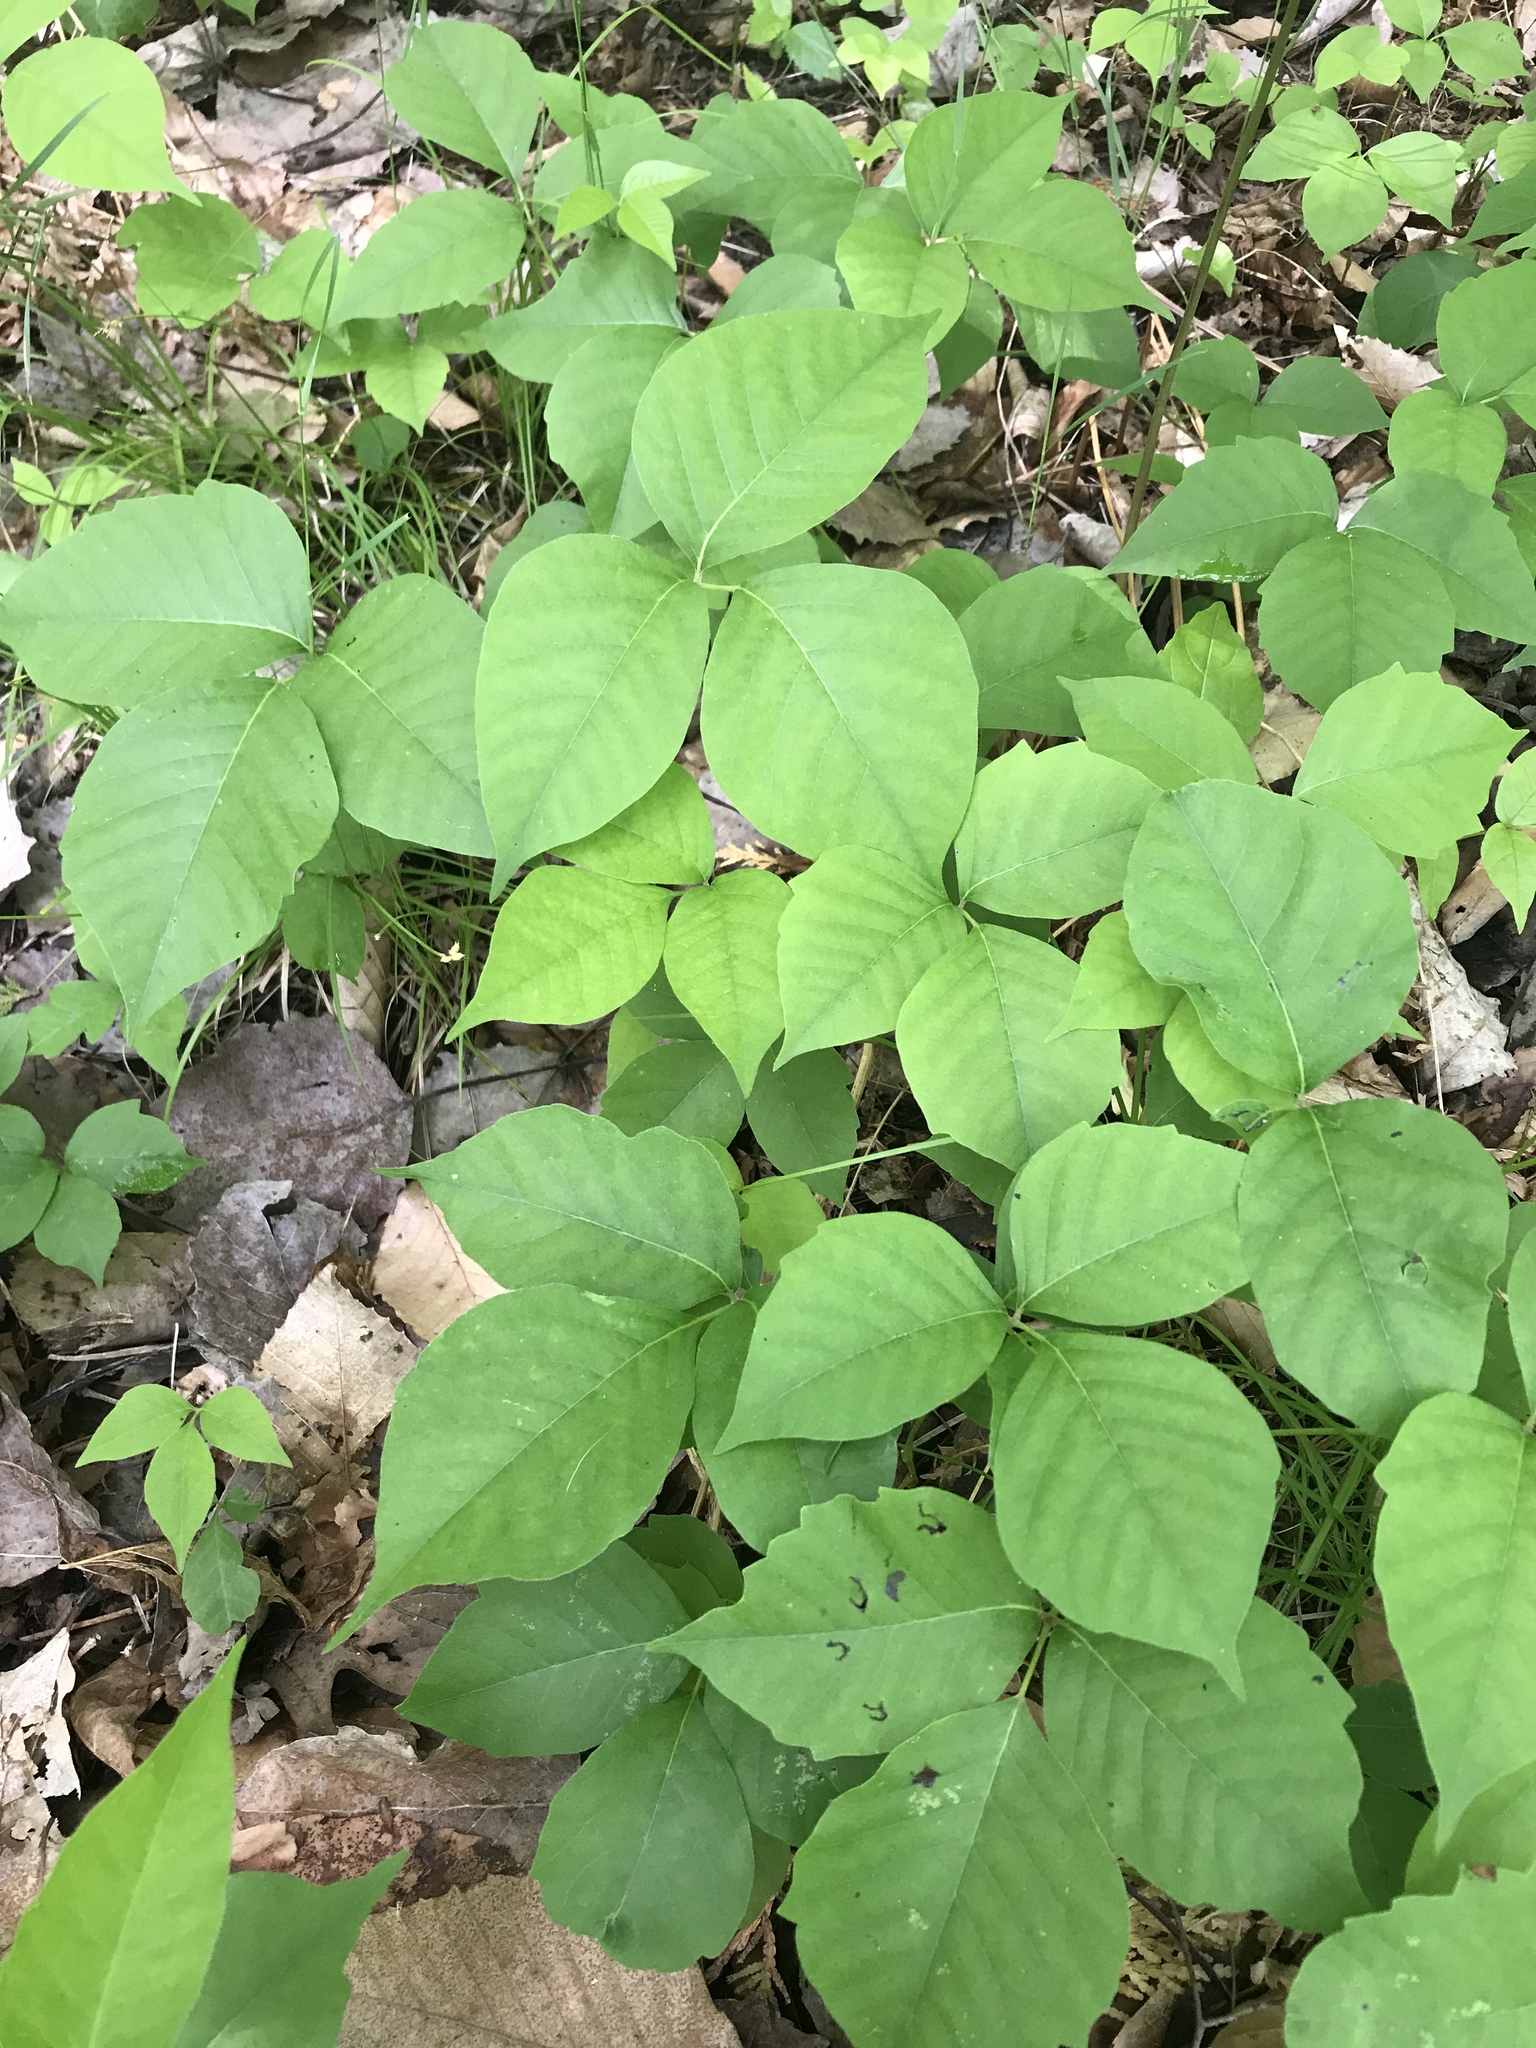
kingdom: Plantae
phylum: Tracheophyta
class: Magnoliopsida
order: Sapindales
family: Anacardiaceae
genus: Toxicodendron
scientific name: Toxicodendron rydbergii
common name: Rydberg's poison-ivy
